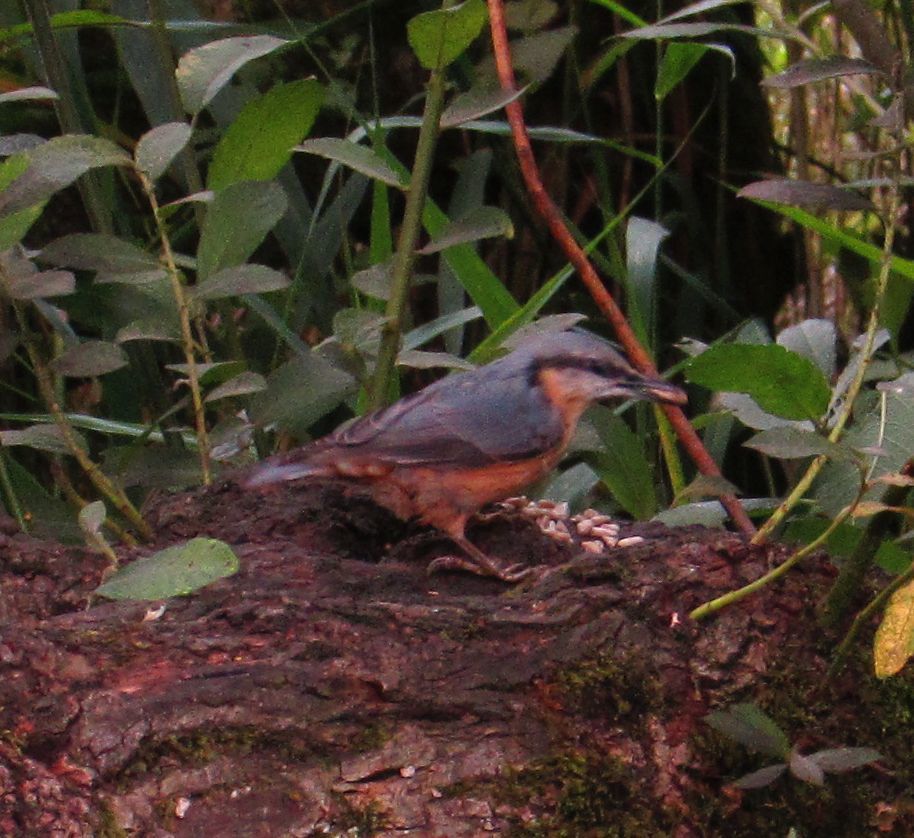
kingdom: Animalia
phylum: Chordata
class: Aves
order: Passeriformes
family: Sittidae
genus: Sitta
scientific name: Sitta europaea
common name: Eurasian nuthatch
